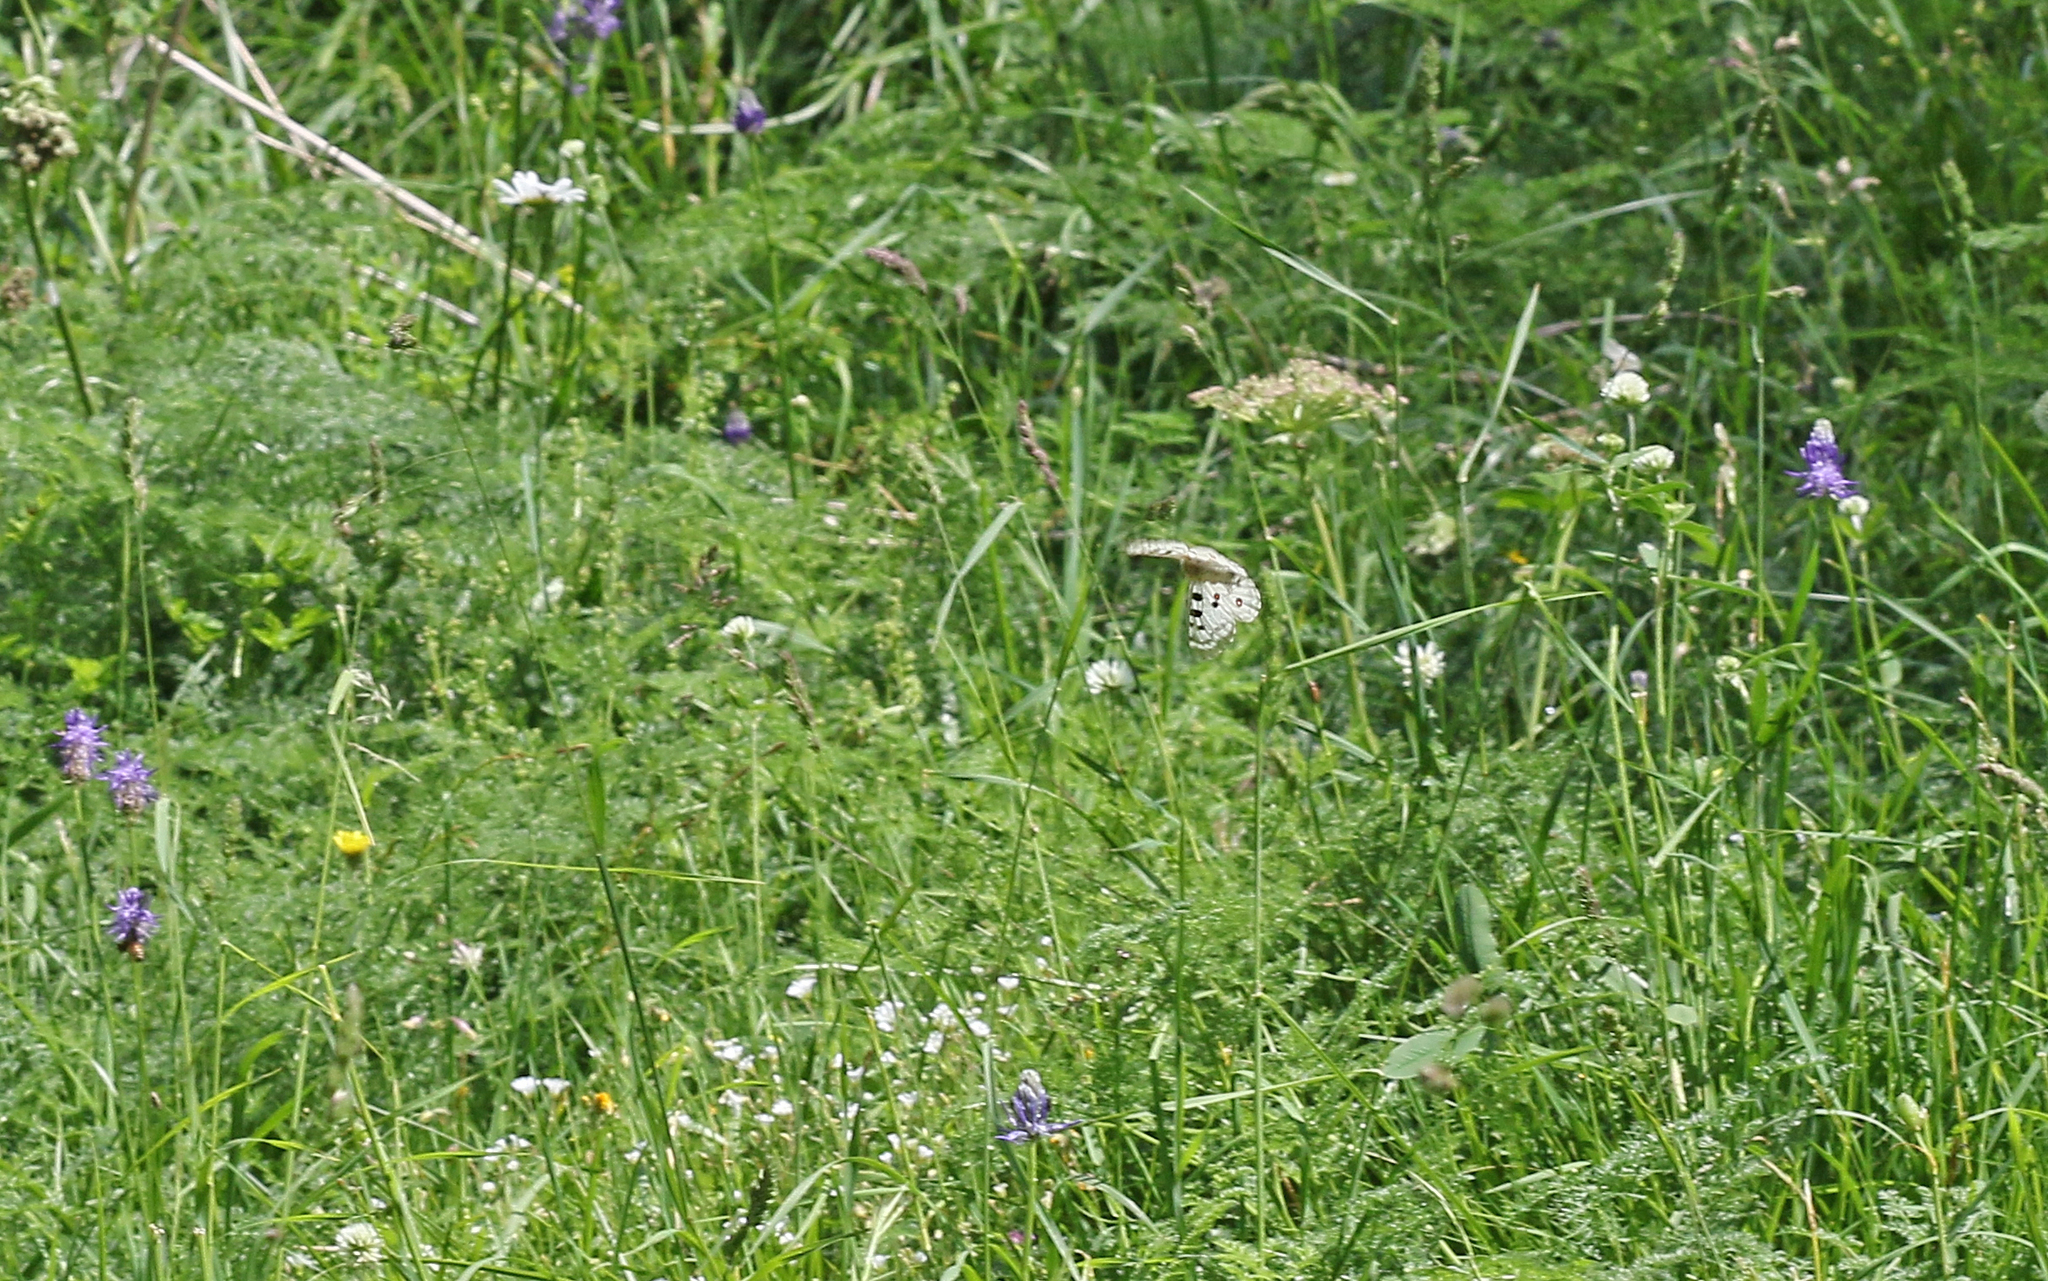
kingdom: Animalia
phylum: Arthropoda
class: Insecta
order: Lepidoptera
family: Papilionidae
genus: Parnassius
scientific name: Parnassius apollo
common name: Apollo
